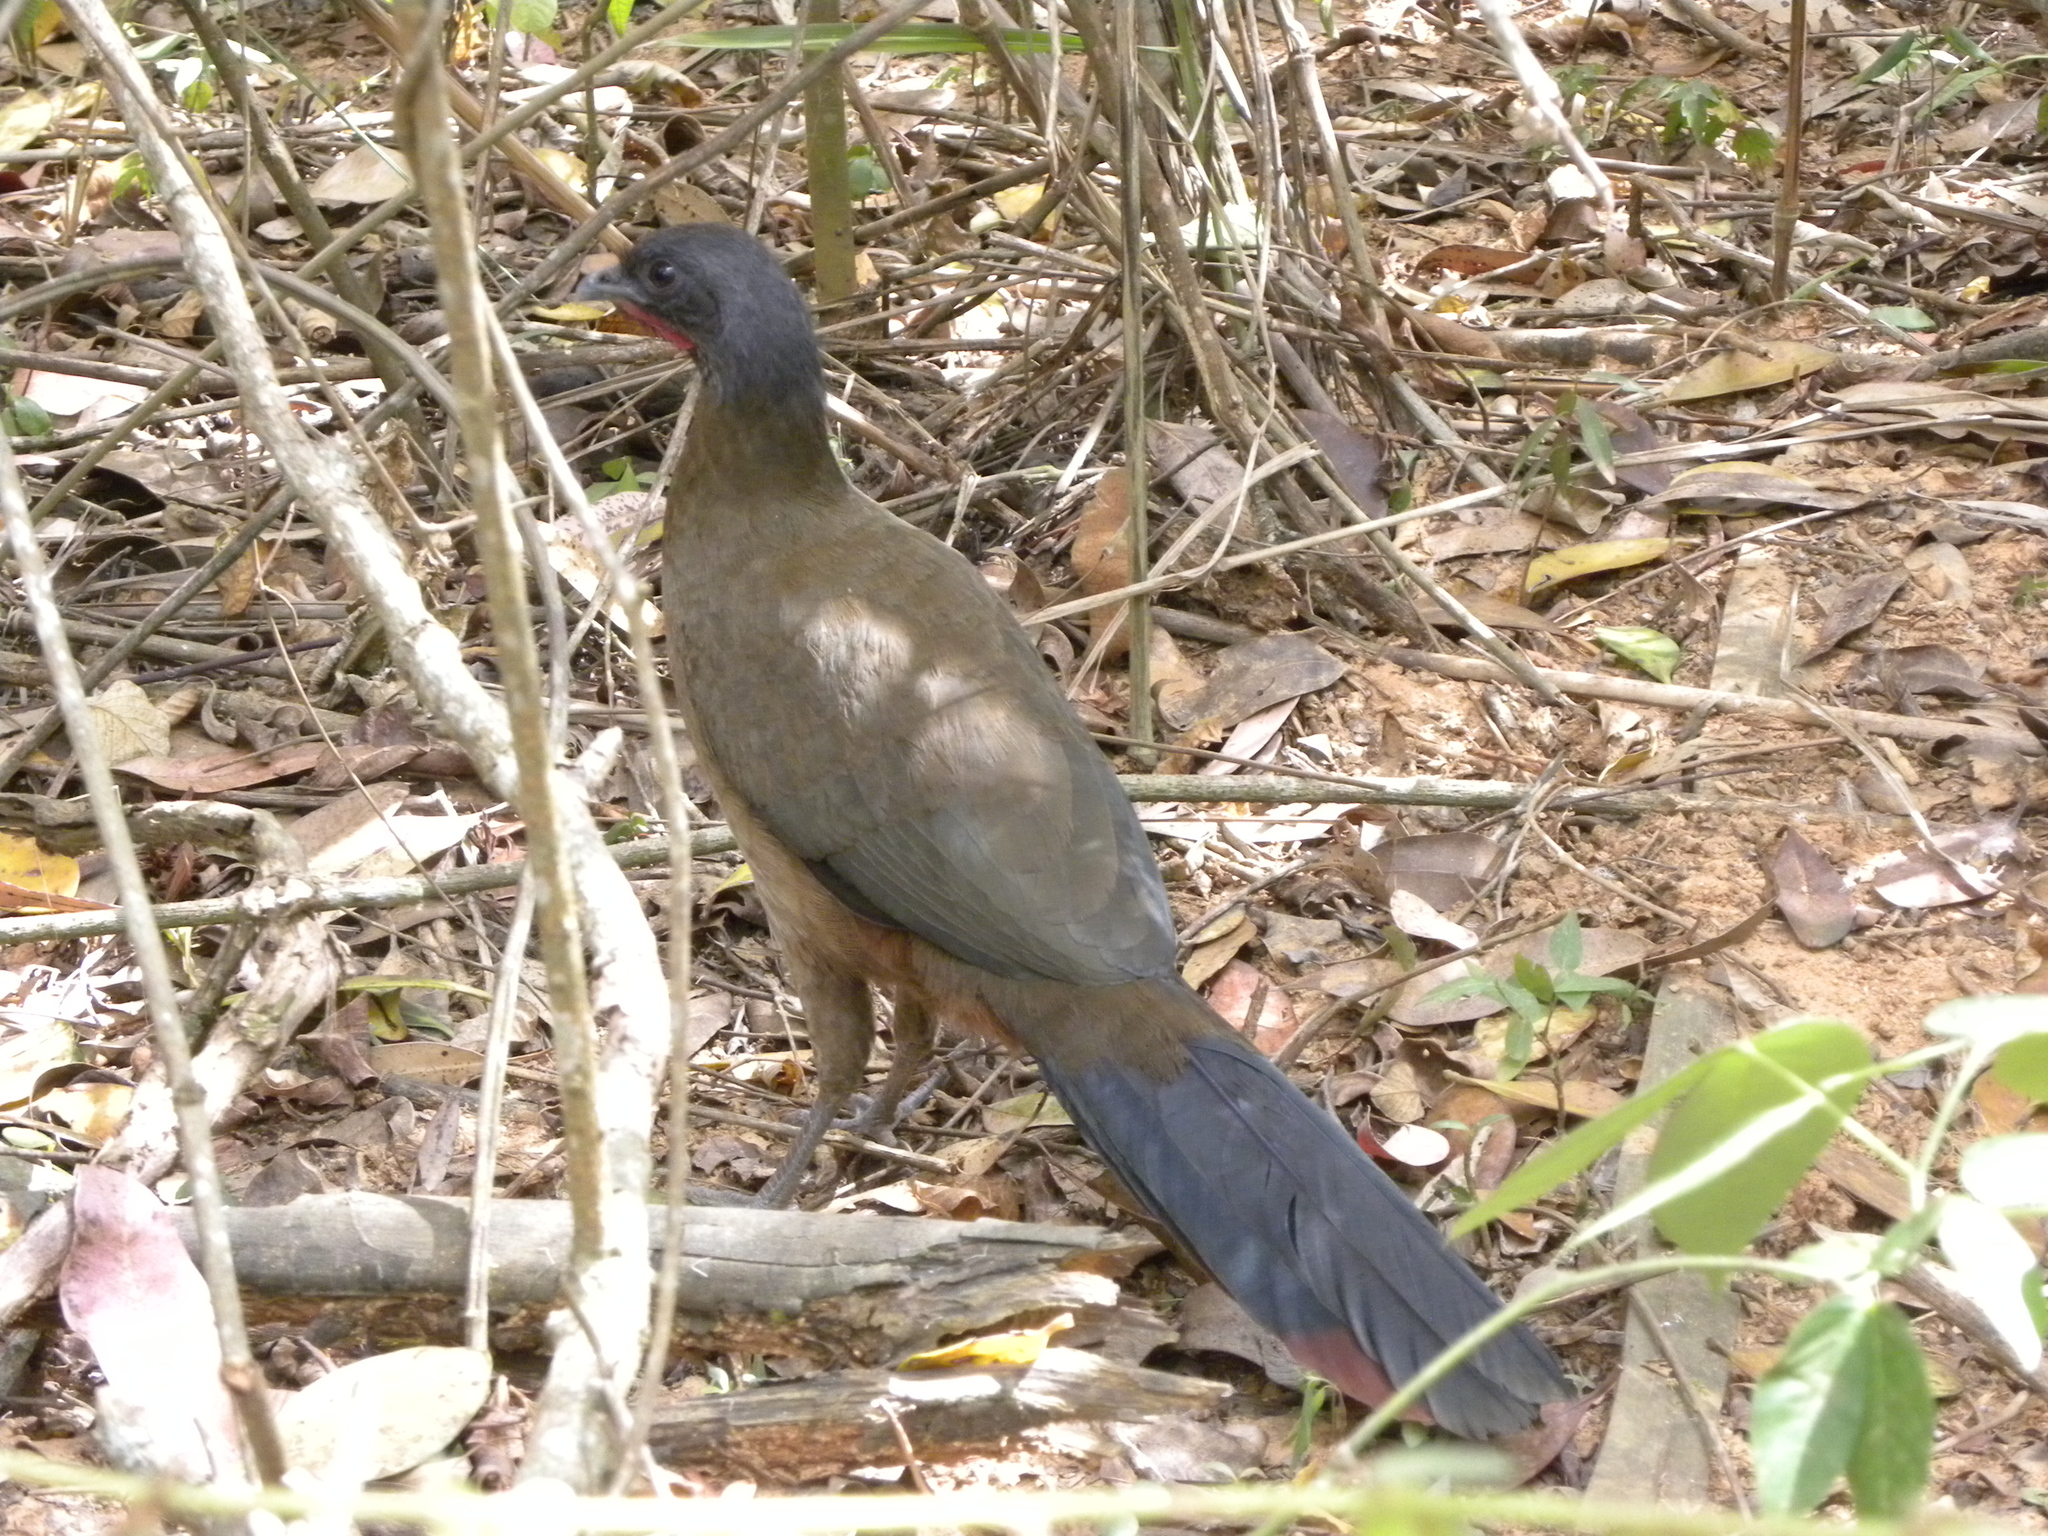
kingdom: Animalia
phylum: Chordata
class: Aves
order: Galliformes
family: Cracidae
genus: Ortalis
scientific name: Ortalis ruficauda
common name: Rufous-vented chachalaca
